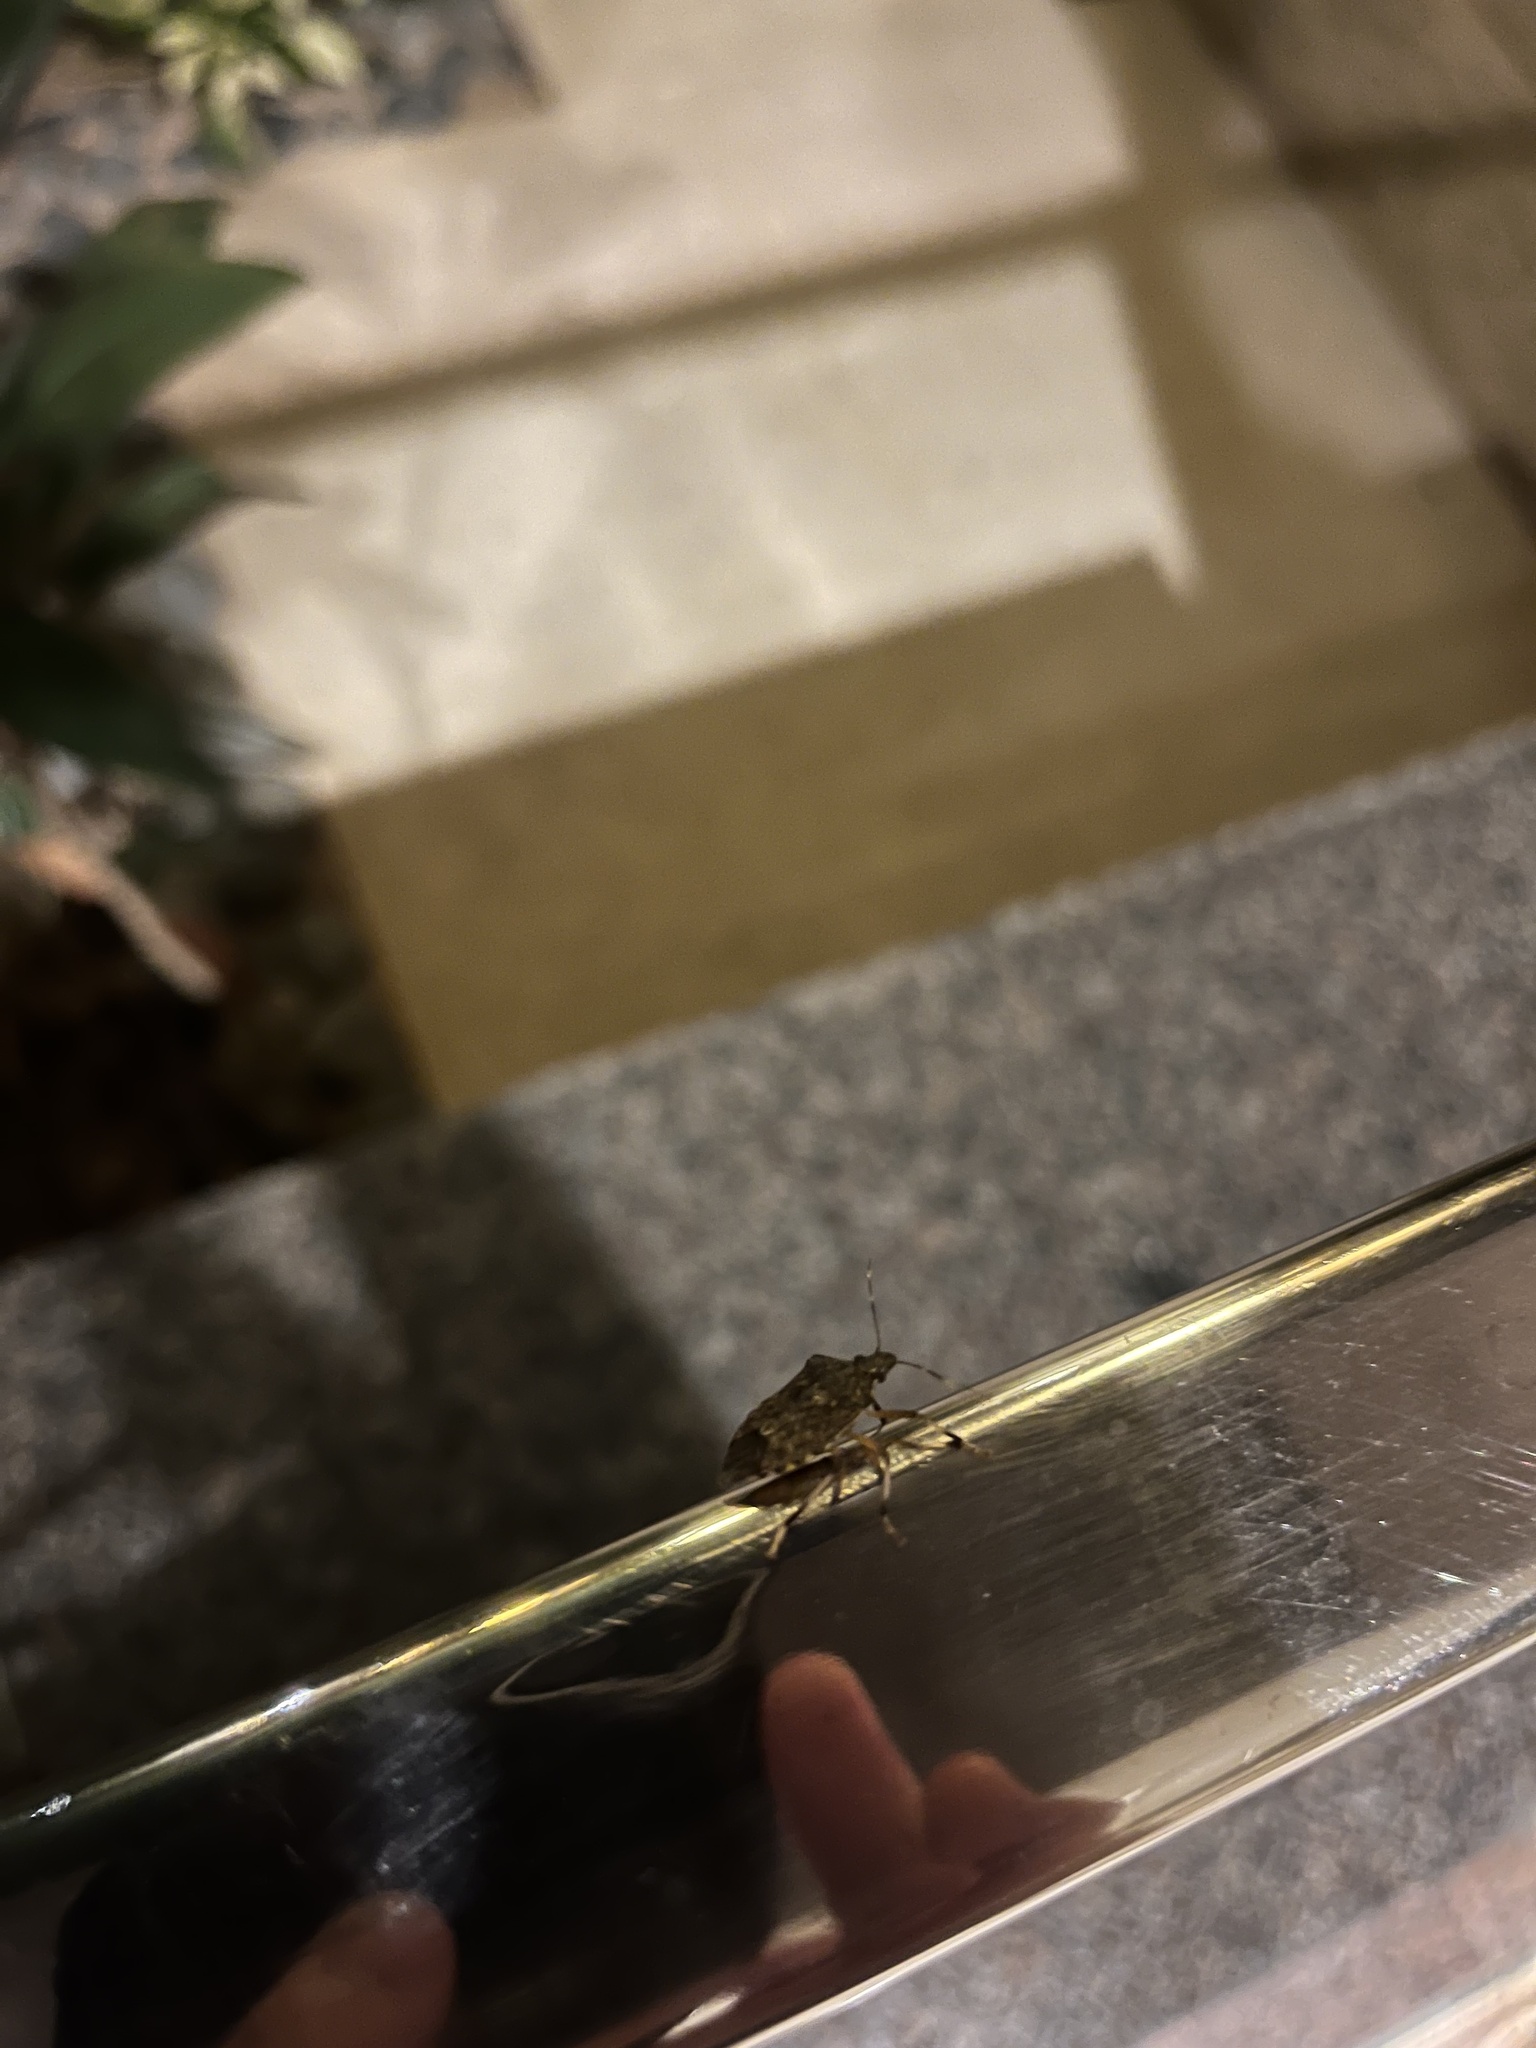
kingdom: Animalia
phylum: Arthropoda
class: Insecta
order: Hemiptera
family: Pentatomidae
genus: Halyomorpha
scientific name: Halyomorpha halys
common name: Brown marmorated stink bug
